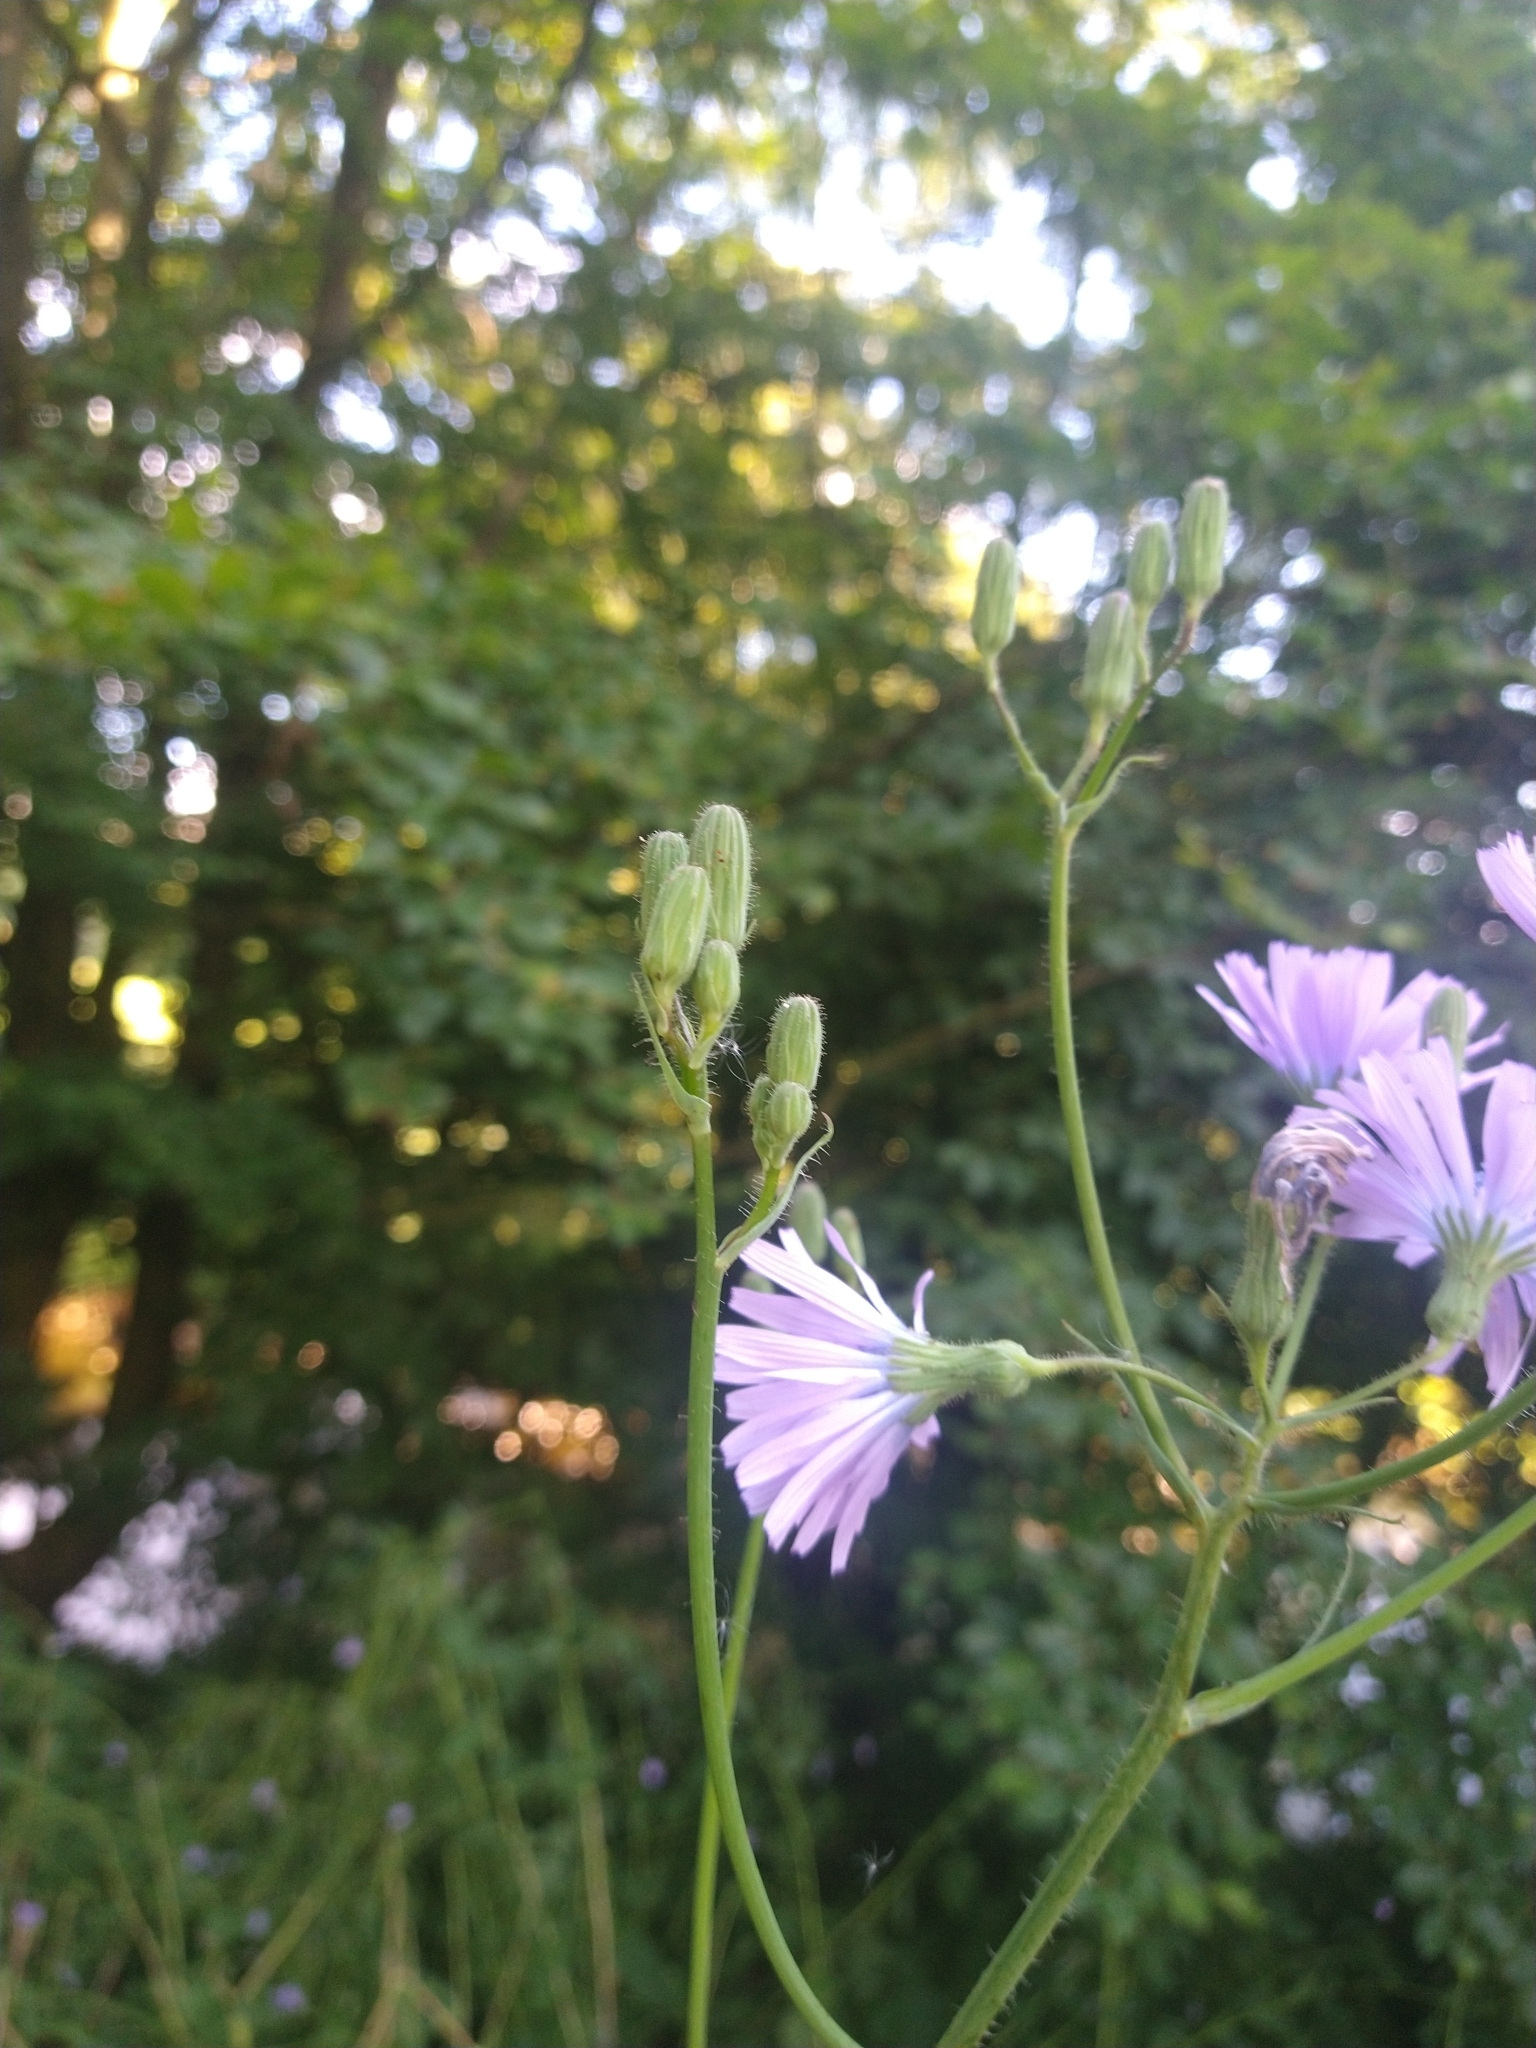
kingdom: Plantae
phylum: Tracheophyta
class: Magnoliopsida
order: Asterales
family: Asteraceae
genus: Lactuca
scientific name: Lactuca macrophylla
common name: Common blue-sow-thistle
